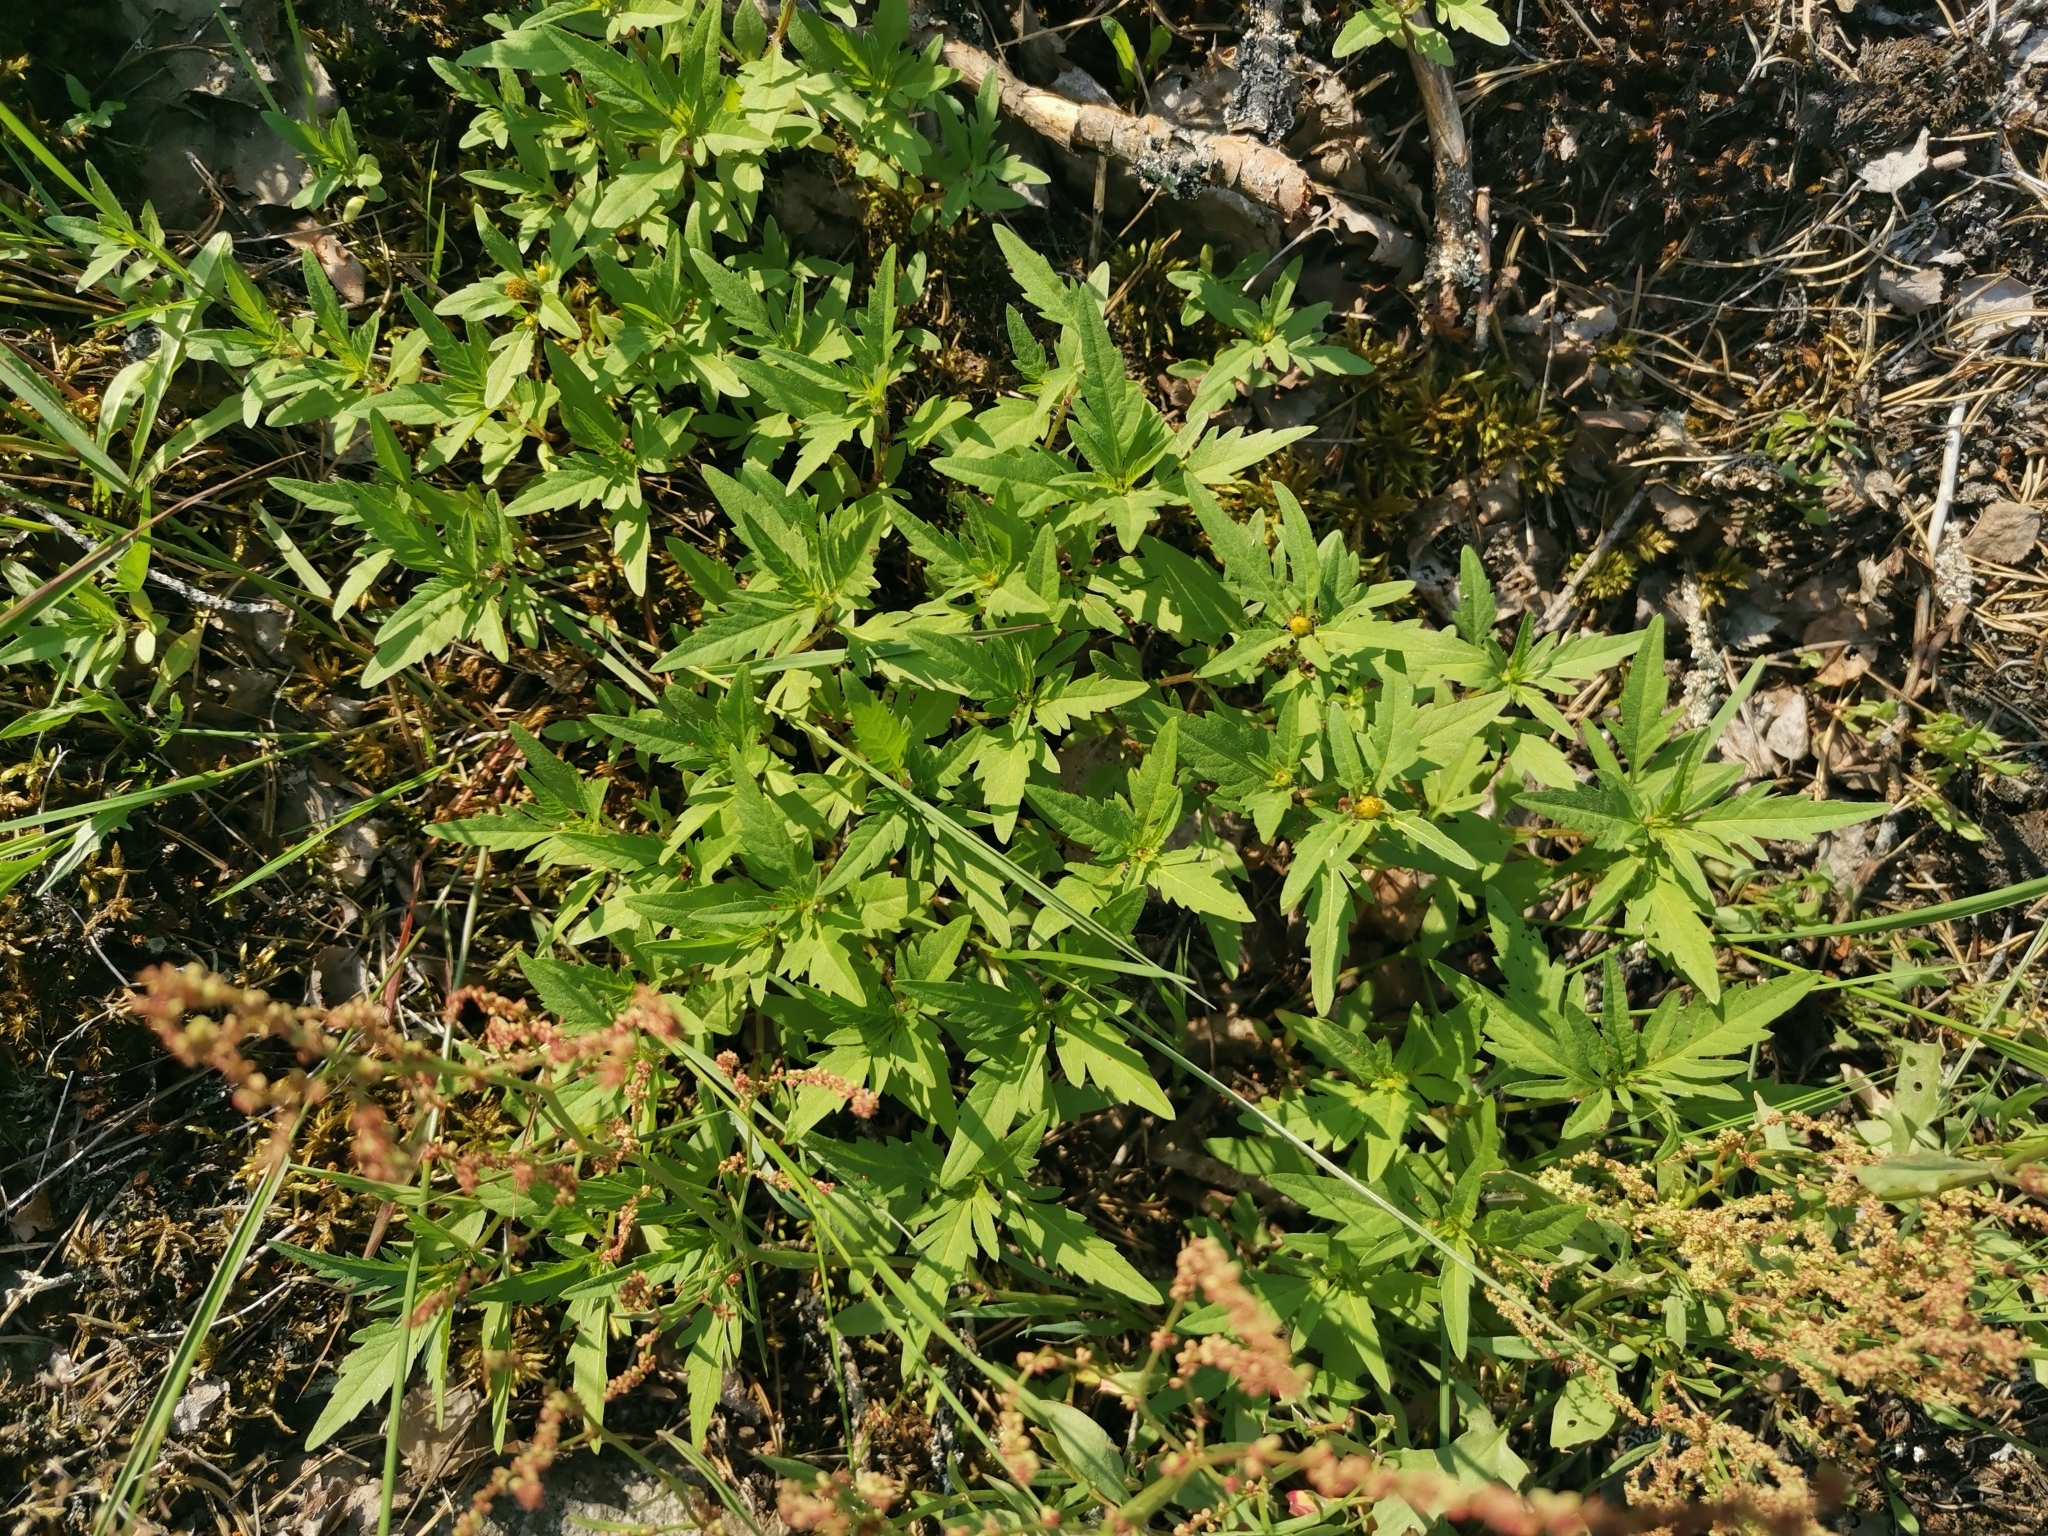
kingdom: Plantae
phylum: Tracheophyta
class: Magnoliopsida
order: Asterales
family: Asteraceae
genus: Bidens
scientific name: Bidens tripartita
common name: Trifid bur-marigold
